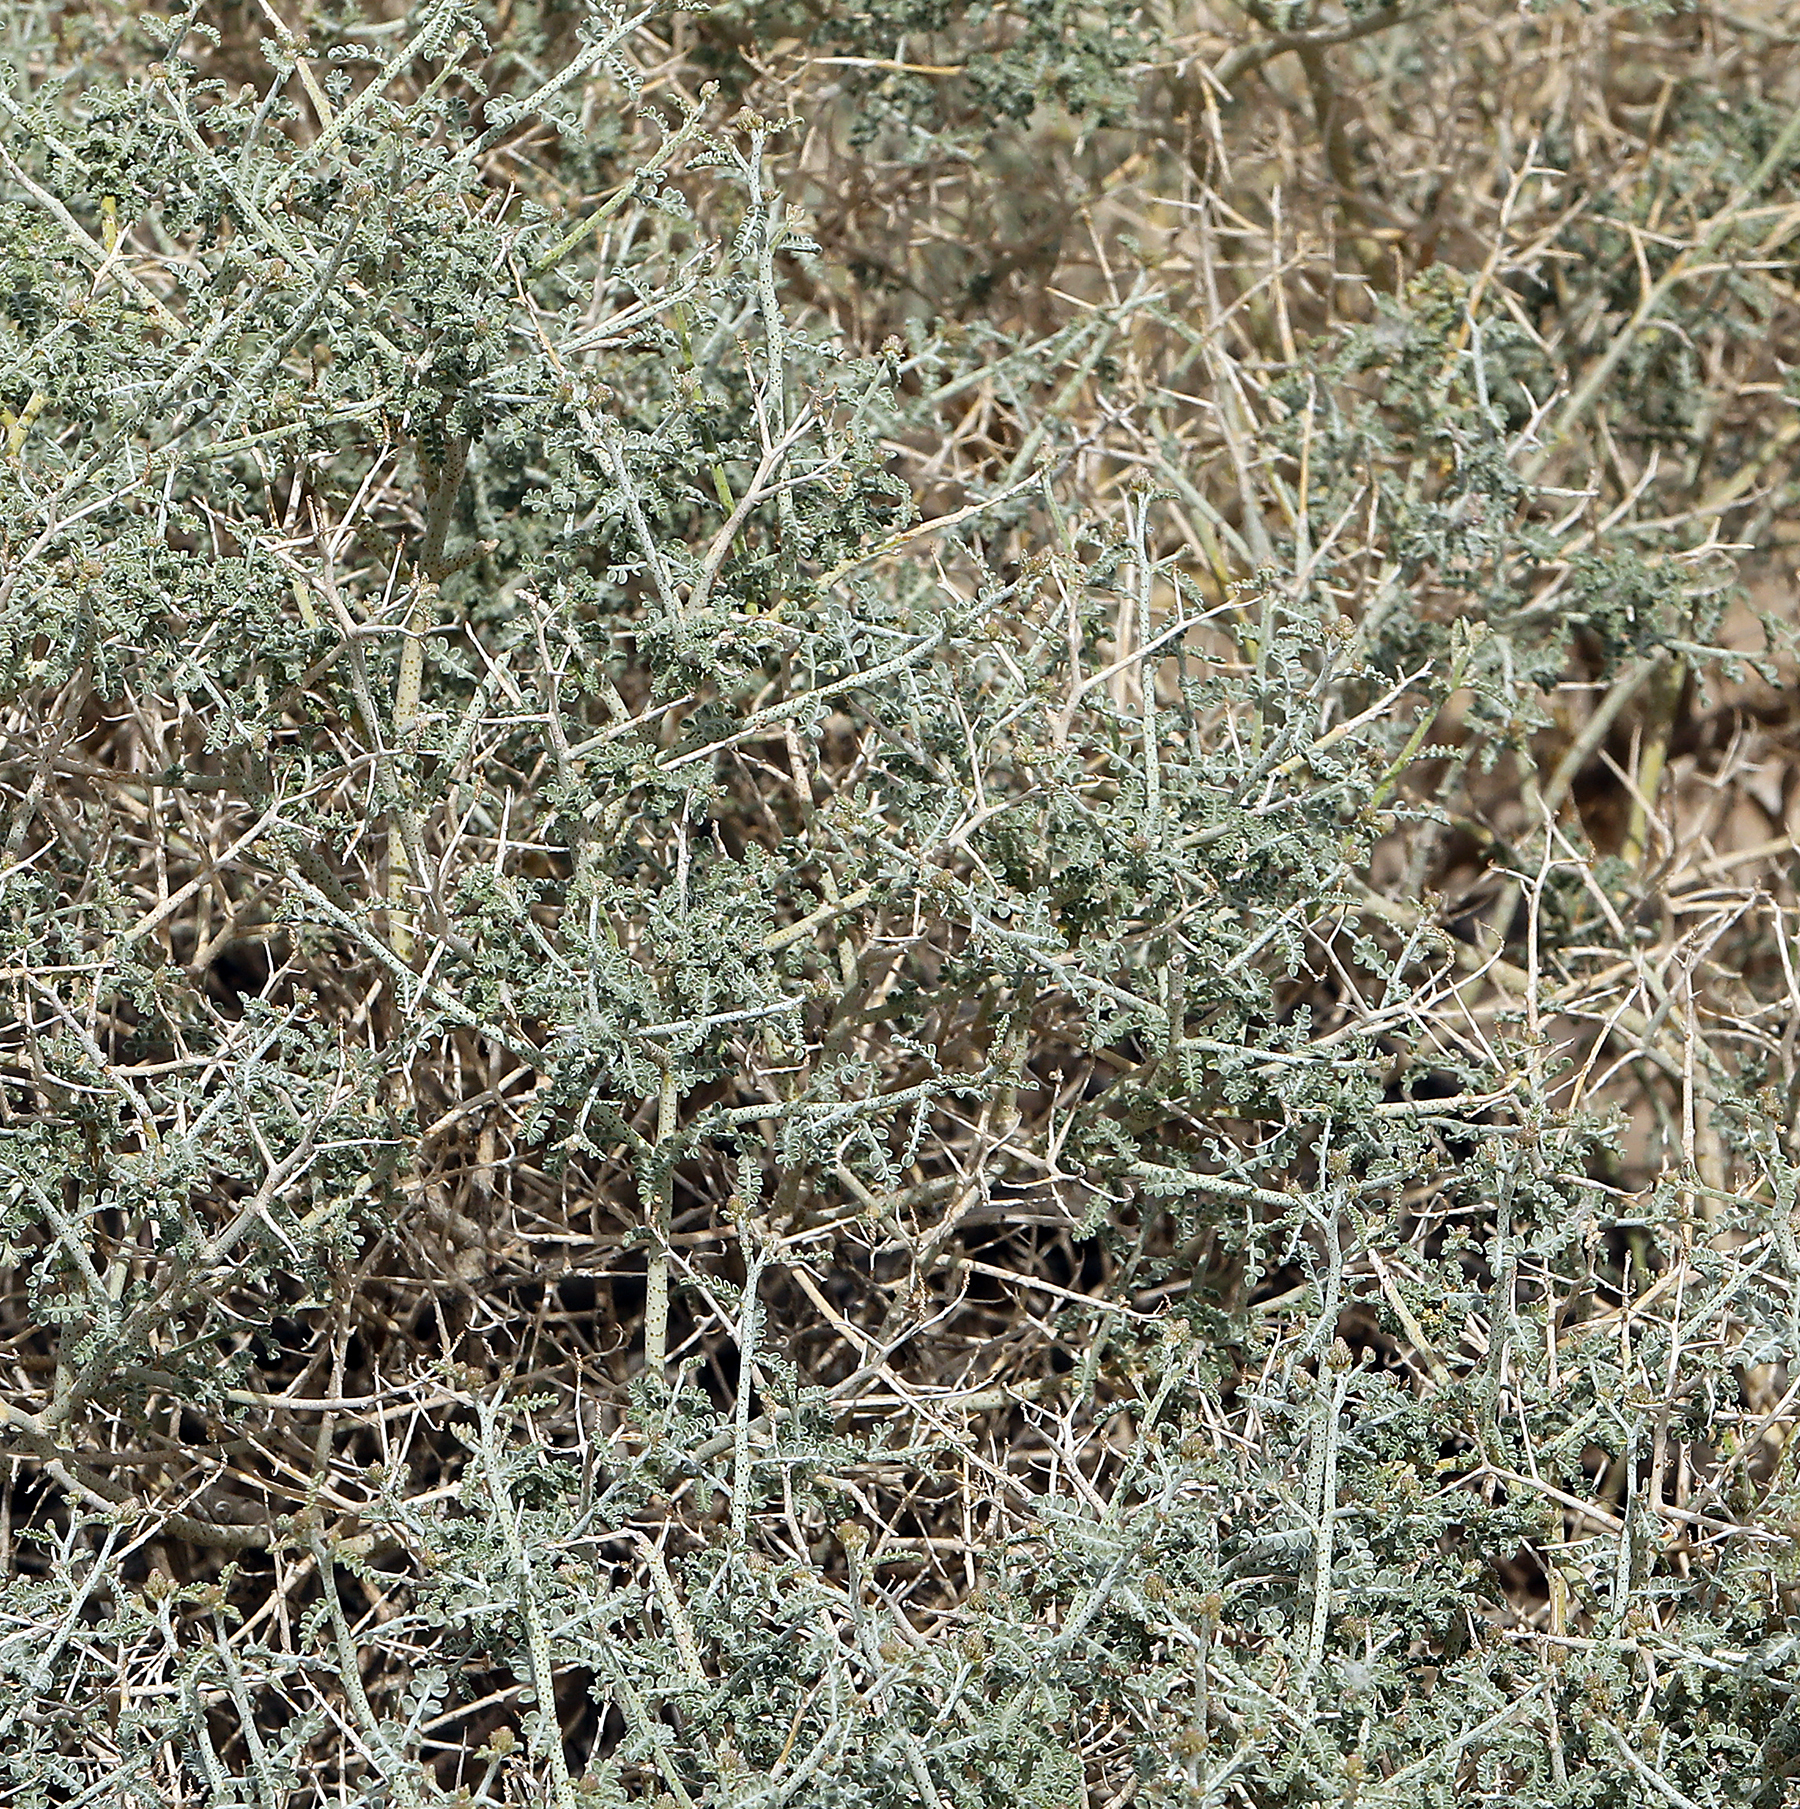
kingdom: Plantae
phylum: Tracheophyta
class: Magnoliopsida
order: Fabales
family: Fabaceae
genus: Psorothamnus
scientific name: Psorothamnus polydenius
